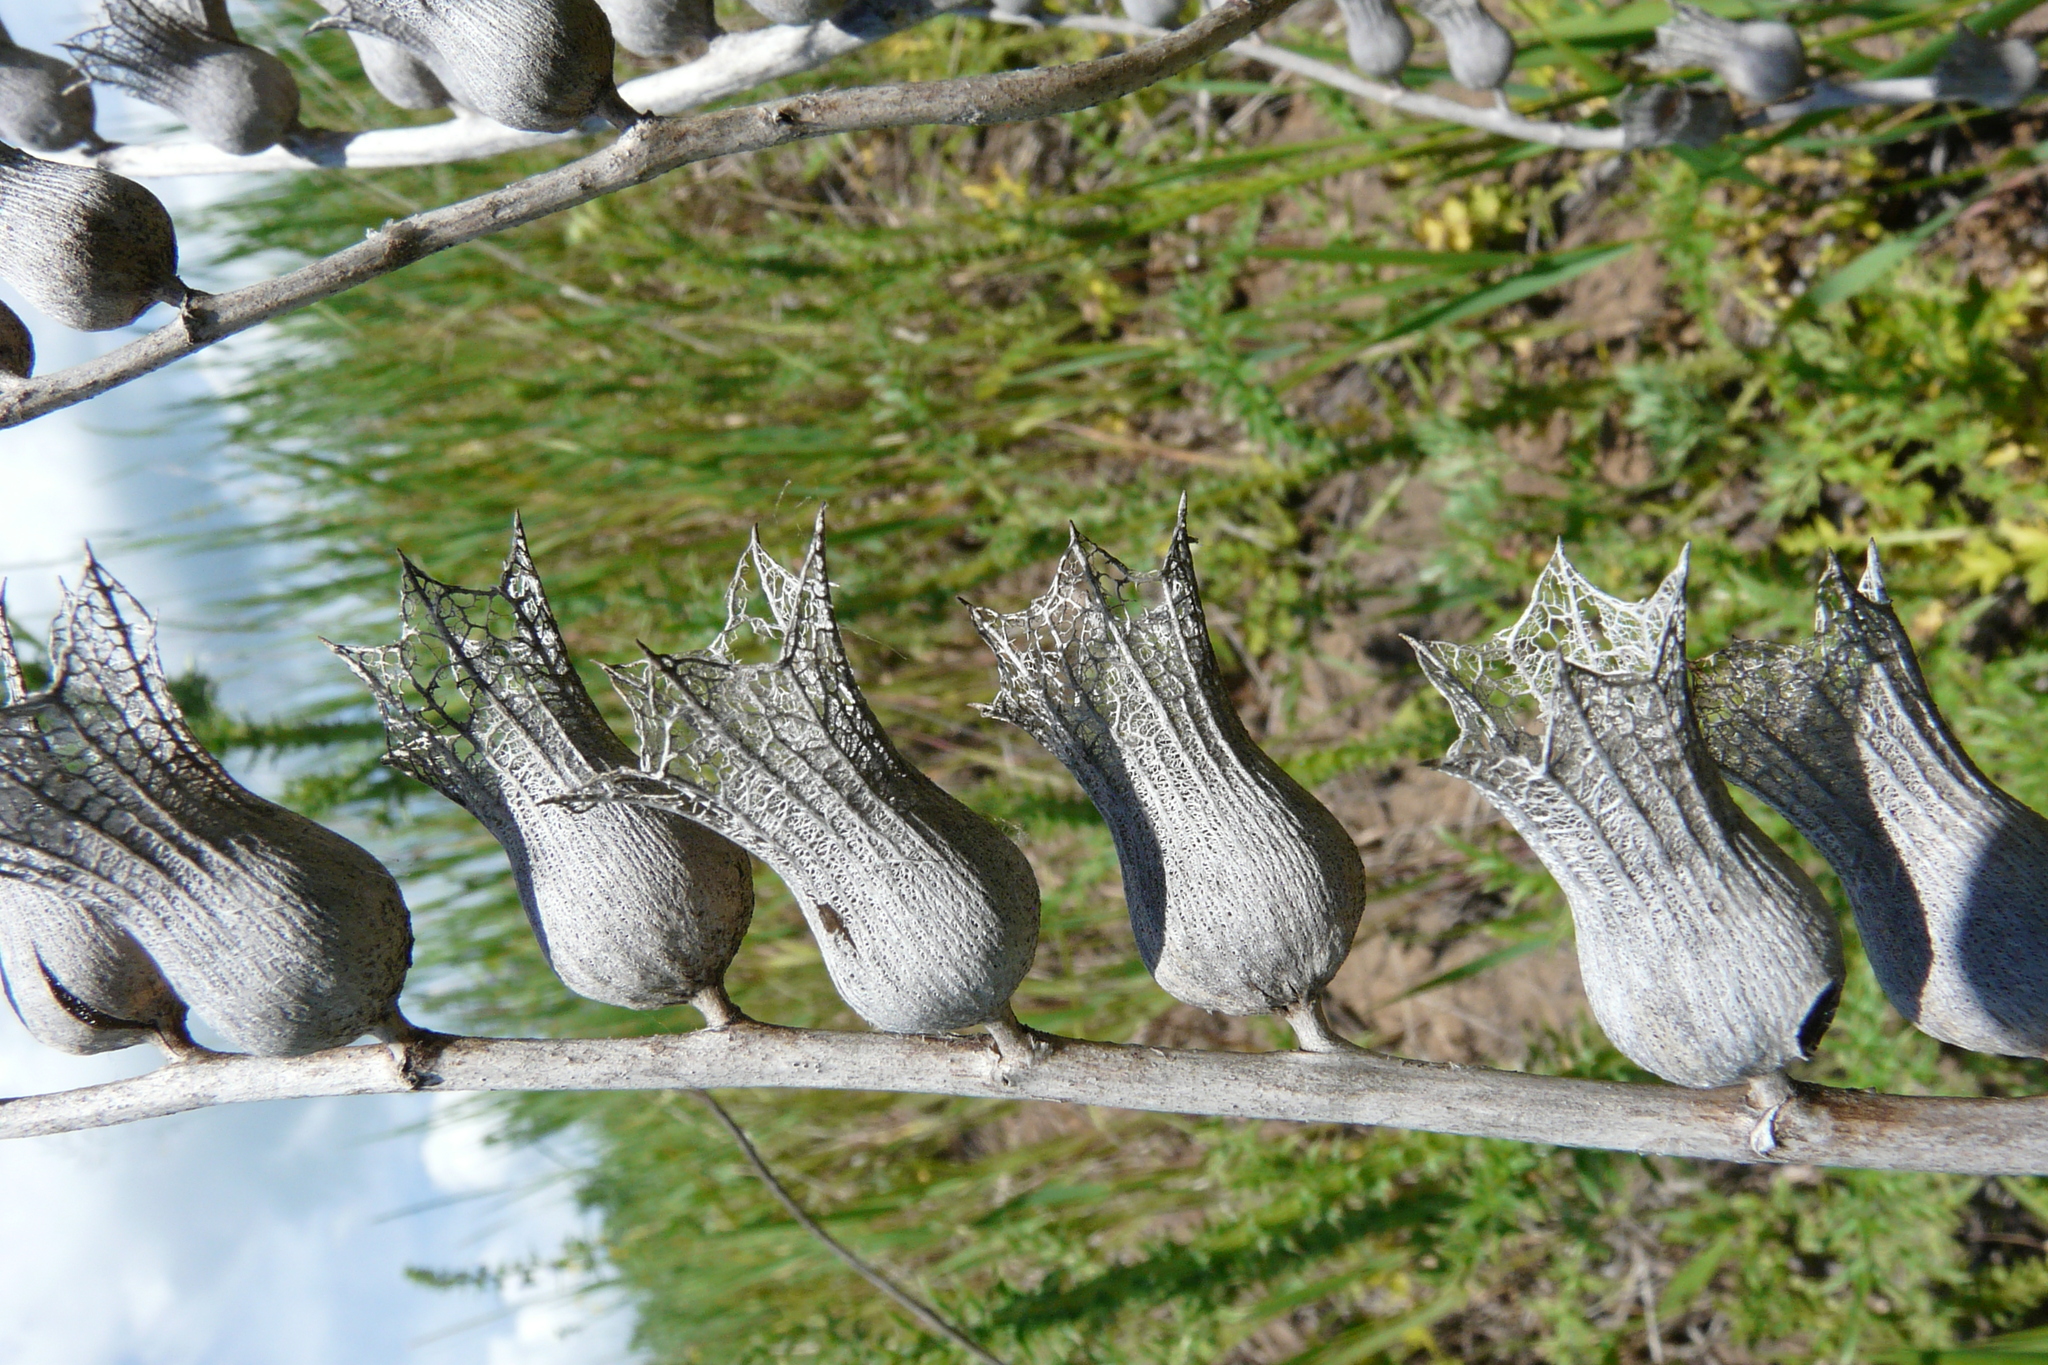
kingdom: Plantae
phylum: Tracheophyta
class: Magnoliopsida
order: Solanales
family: Solanaceae
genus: Hyoscyamus
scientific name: Hyoscyamus niger
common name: Henbane
